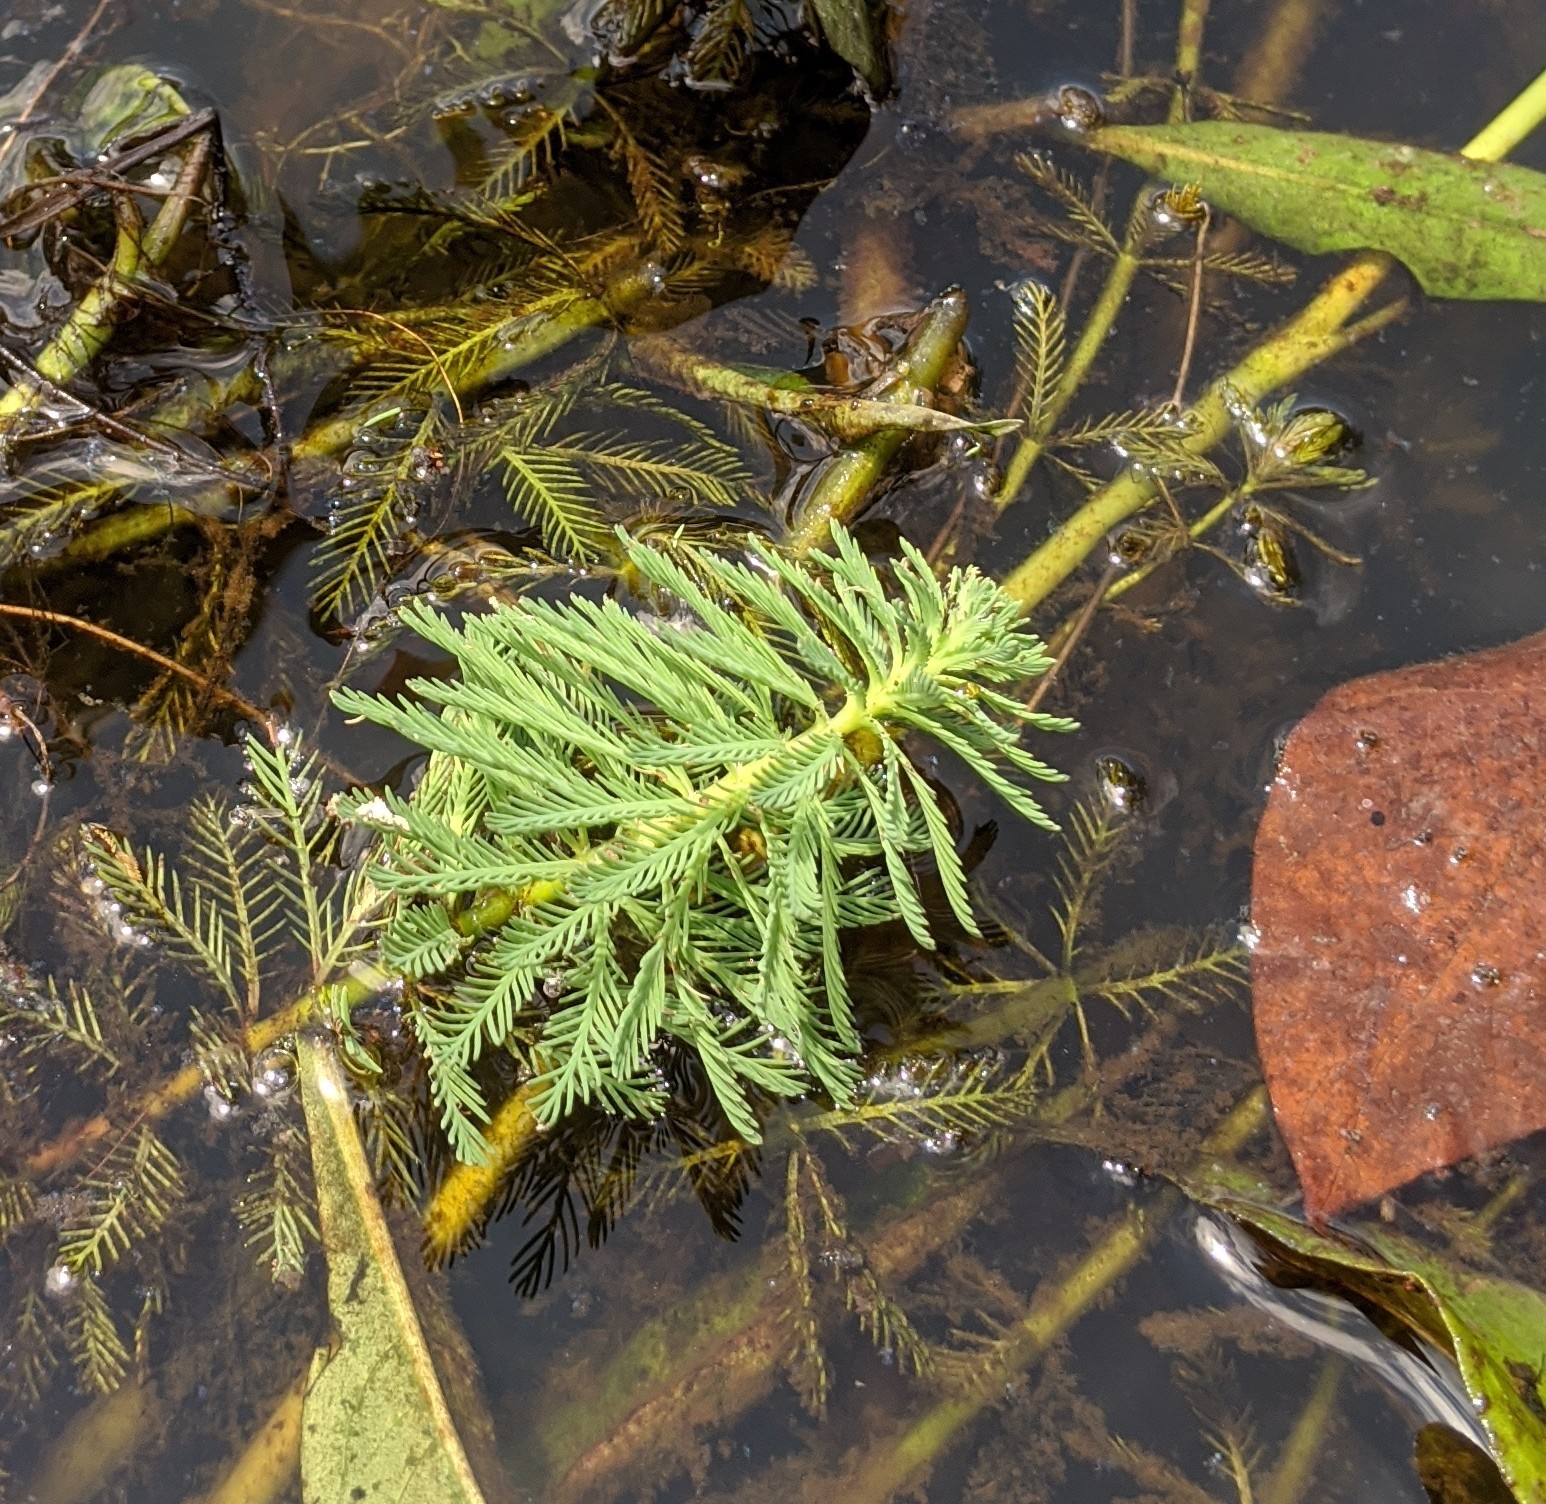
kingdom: Plantae
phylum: Tracheophyta
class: Magnoliopsida
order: Saxifragales
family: Haloragaceae
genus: Myriophyllum
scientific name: Myriophyllum aquaticum
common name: Parrot's feather
